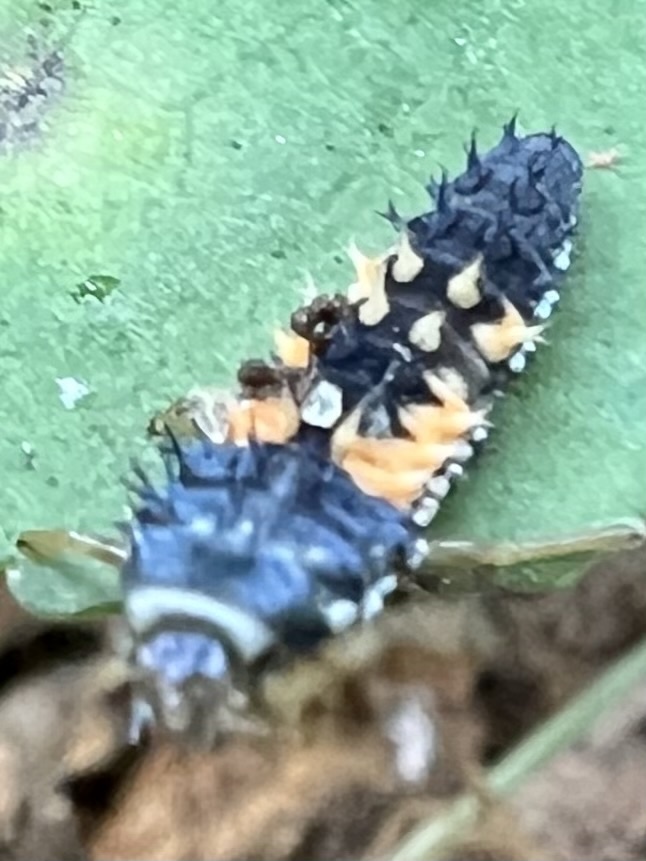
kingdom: Animalia
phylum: Arthropoda
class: Insecta
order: Coleoptera
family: Coccinellidae
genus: Harmonia
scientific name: Harmonia axyridis
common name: Harlequin ladybird
